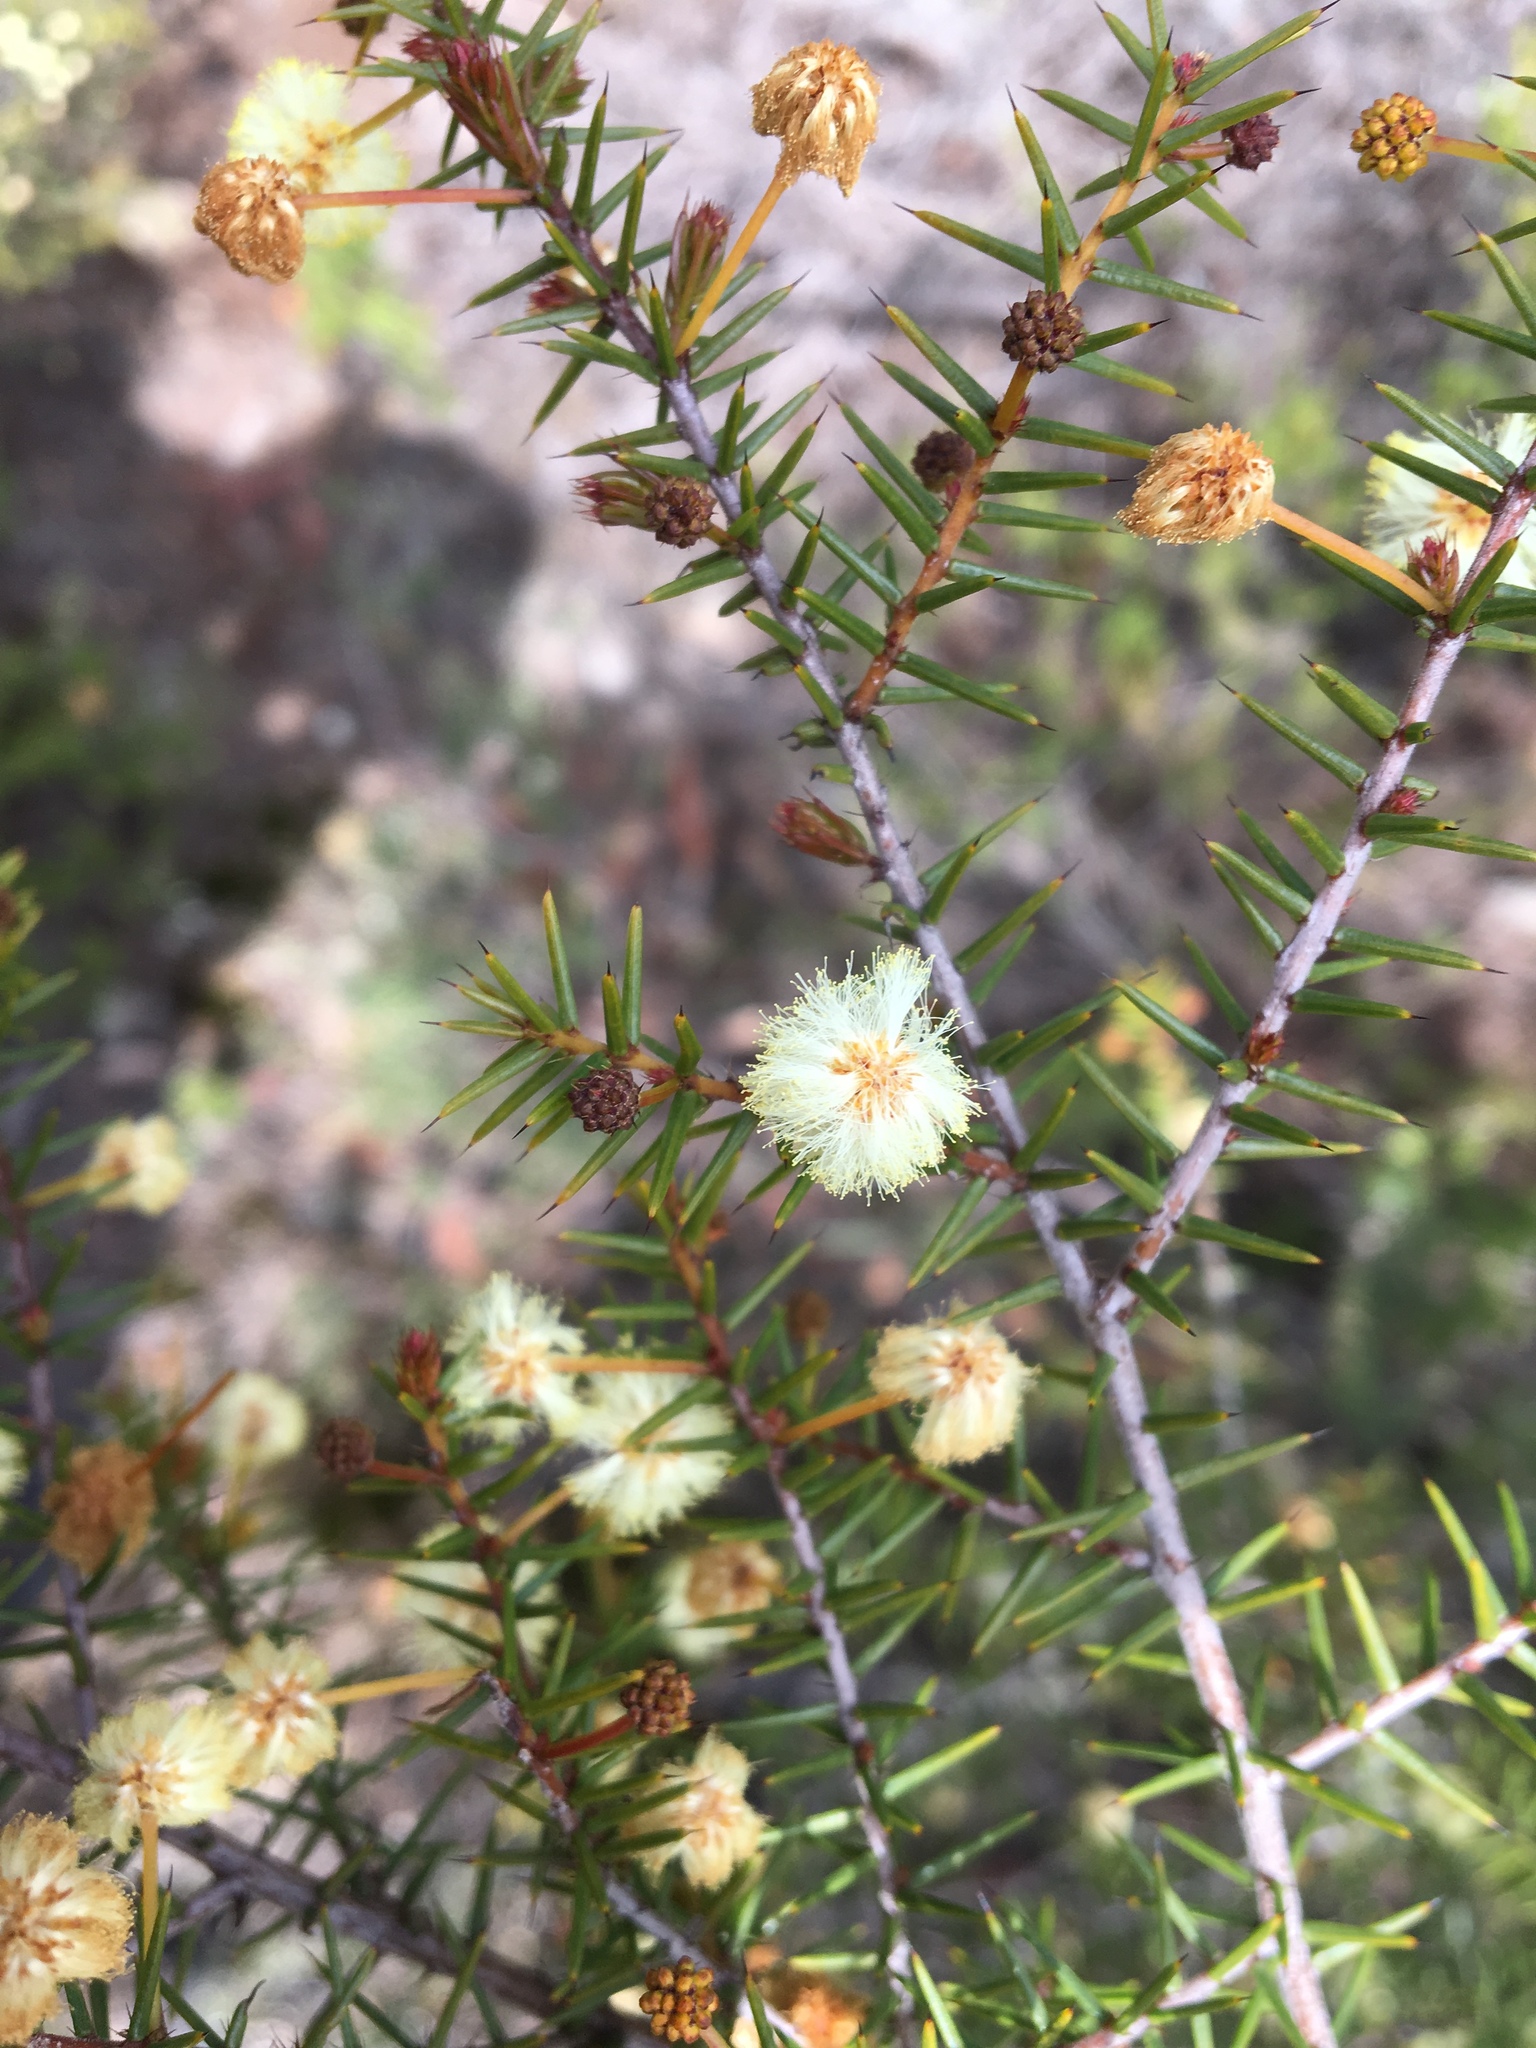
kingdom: Plantae
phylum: Tracheophyta
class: Magnoliopsida
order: Fabales
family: Fabaceae
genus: Acacia
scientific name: Acacia ulicifolia
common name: Juniper wattle
